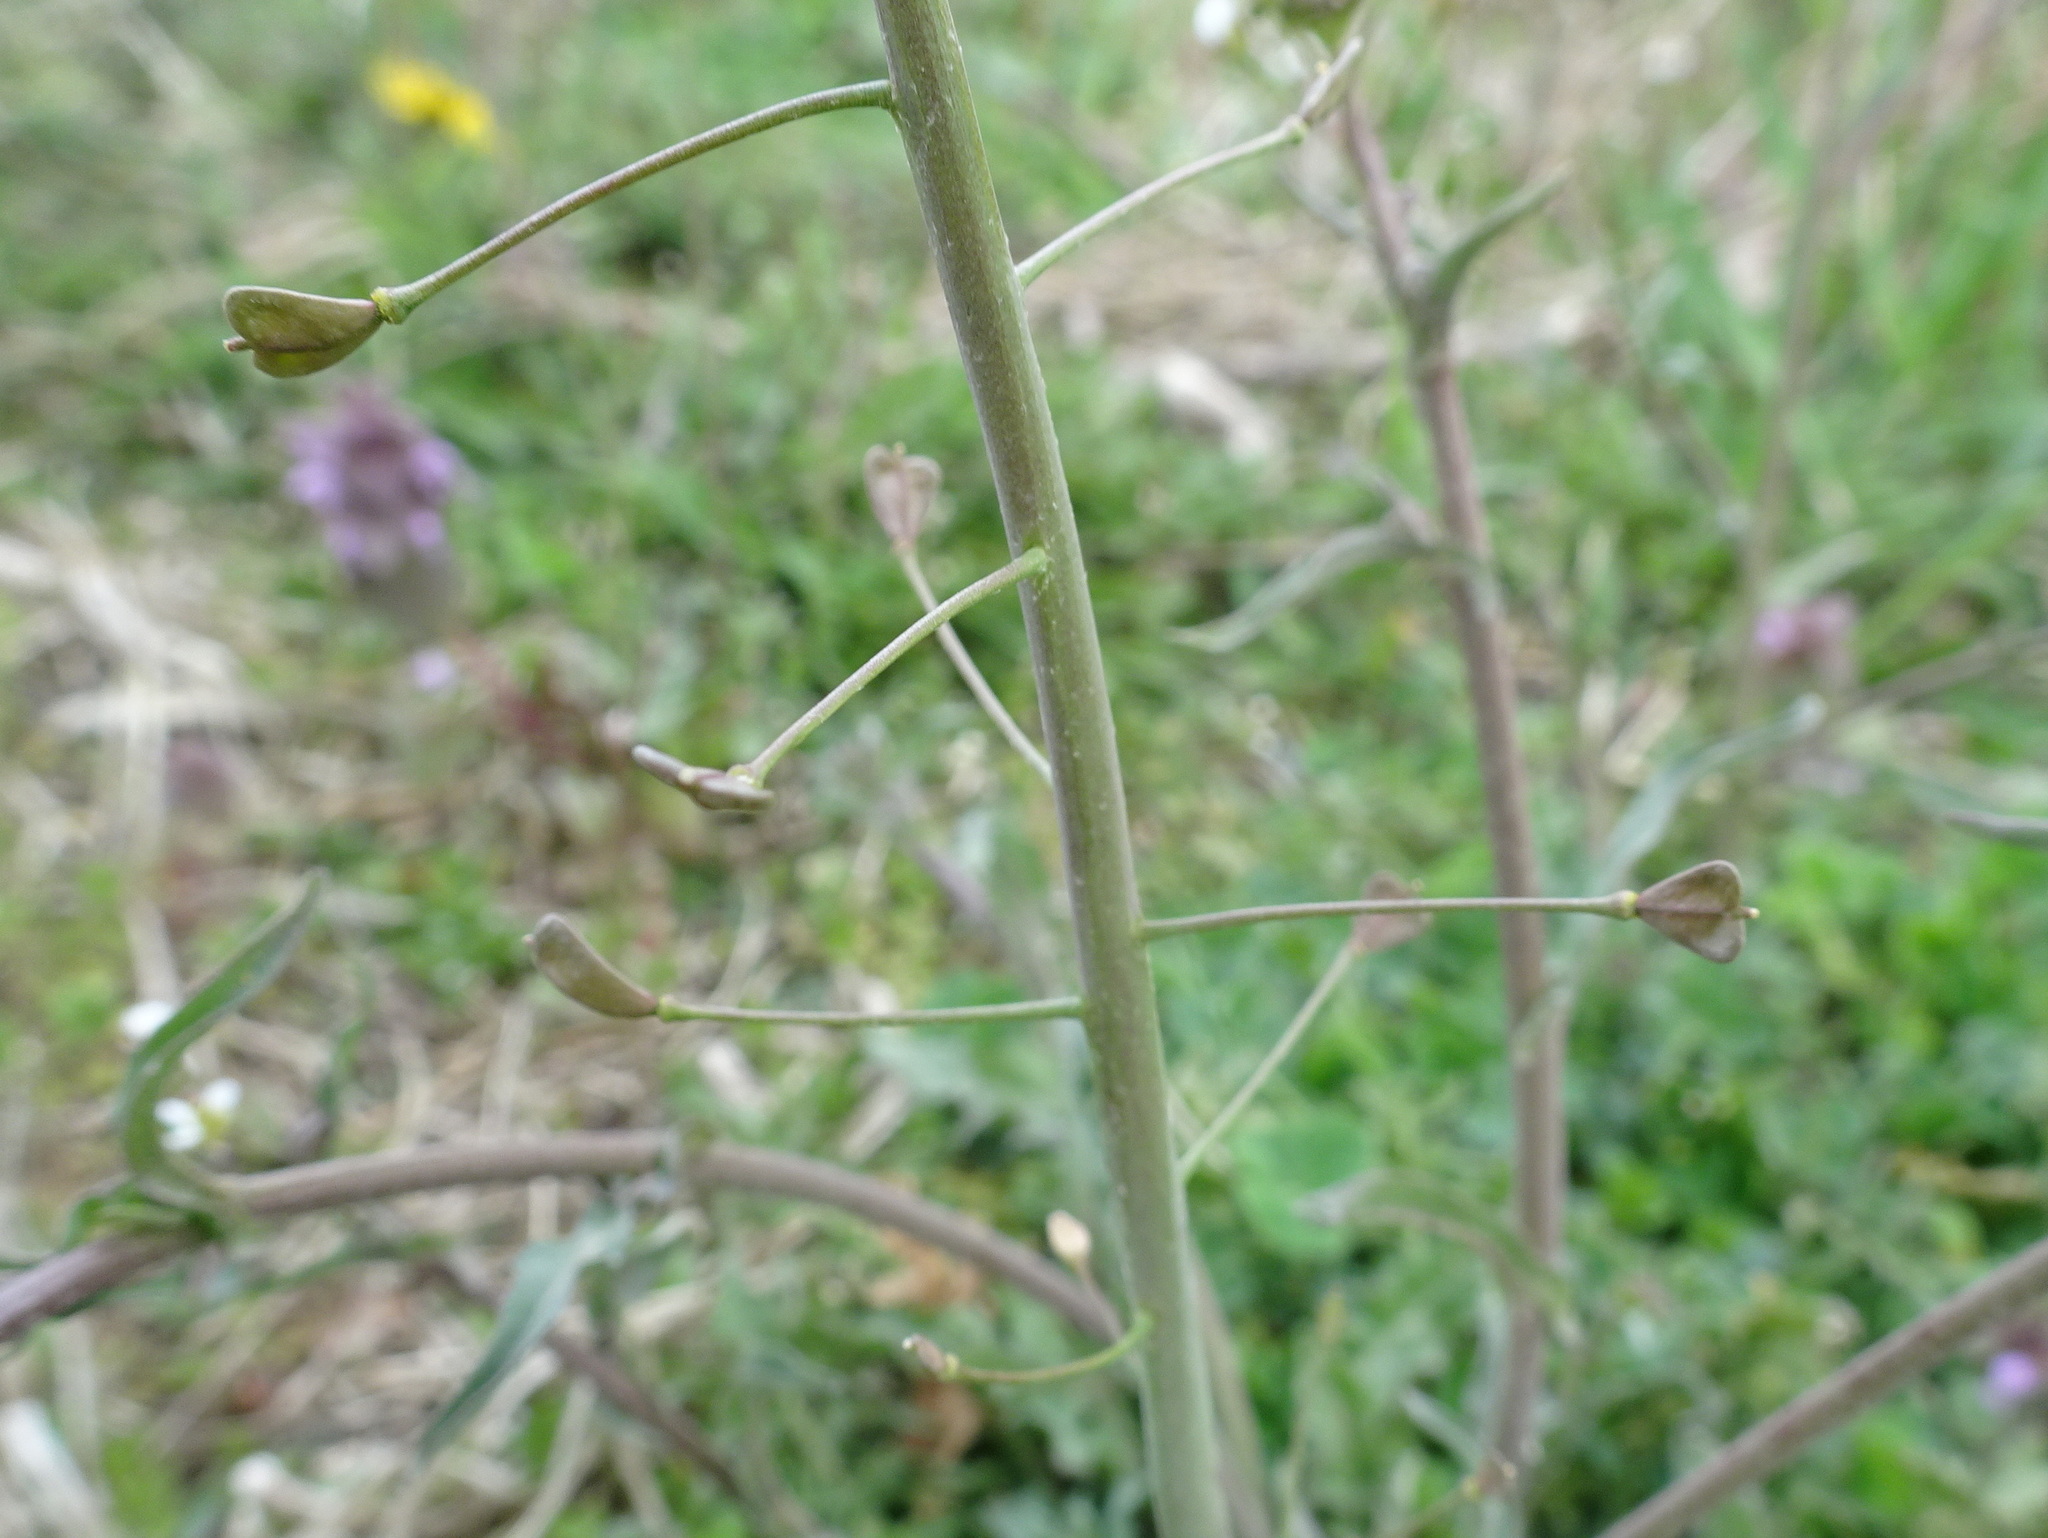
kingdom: Plantae
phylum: Tracheophyta
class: Magnoliopsida
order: Brassicales
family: Brassicaceae
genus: Capsella
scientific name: Capsella bursa-pastoris
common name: Shepherd's purse
